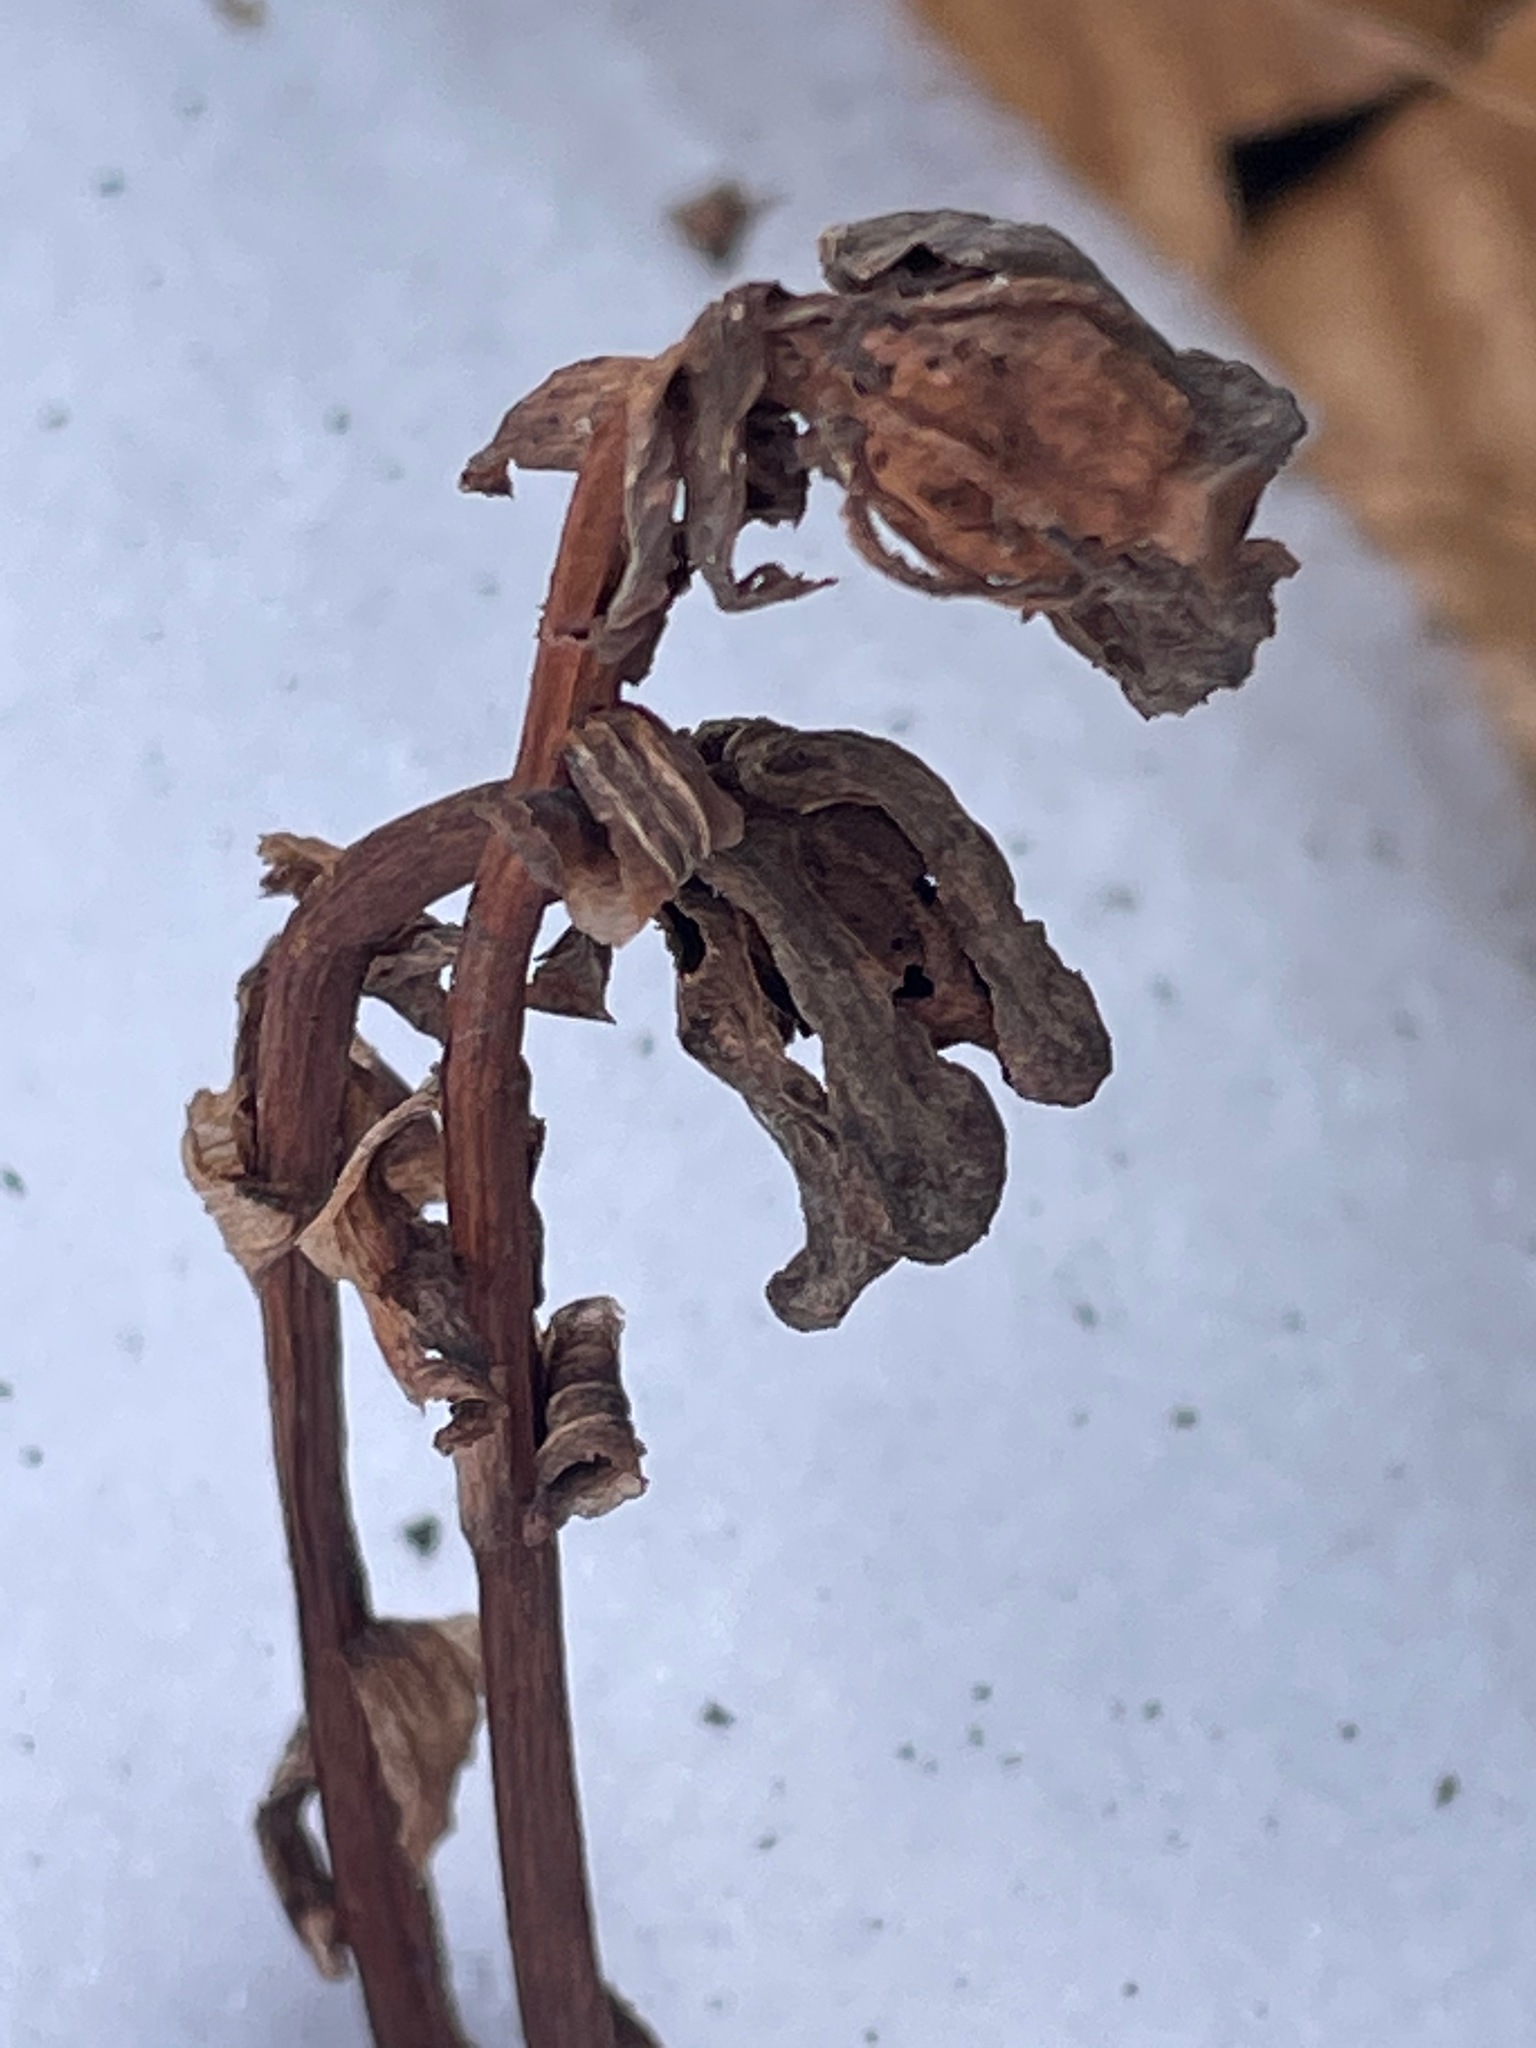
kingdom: Plantae
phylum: Tracheophyta
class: Magnoliopsida
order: Ericales
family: Ericaceae
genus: Monotropa
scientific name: Monotropa uniflora
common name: Convulsion root
